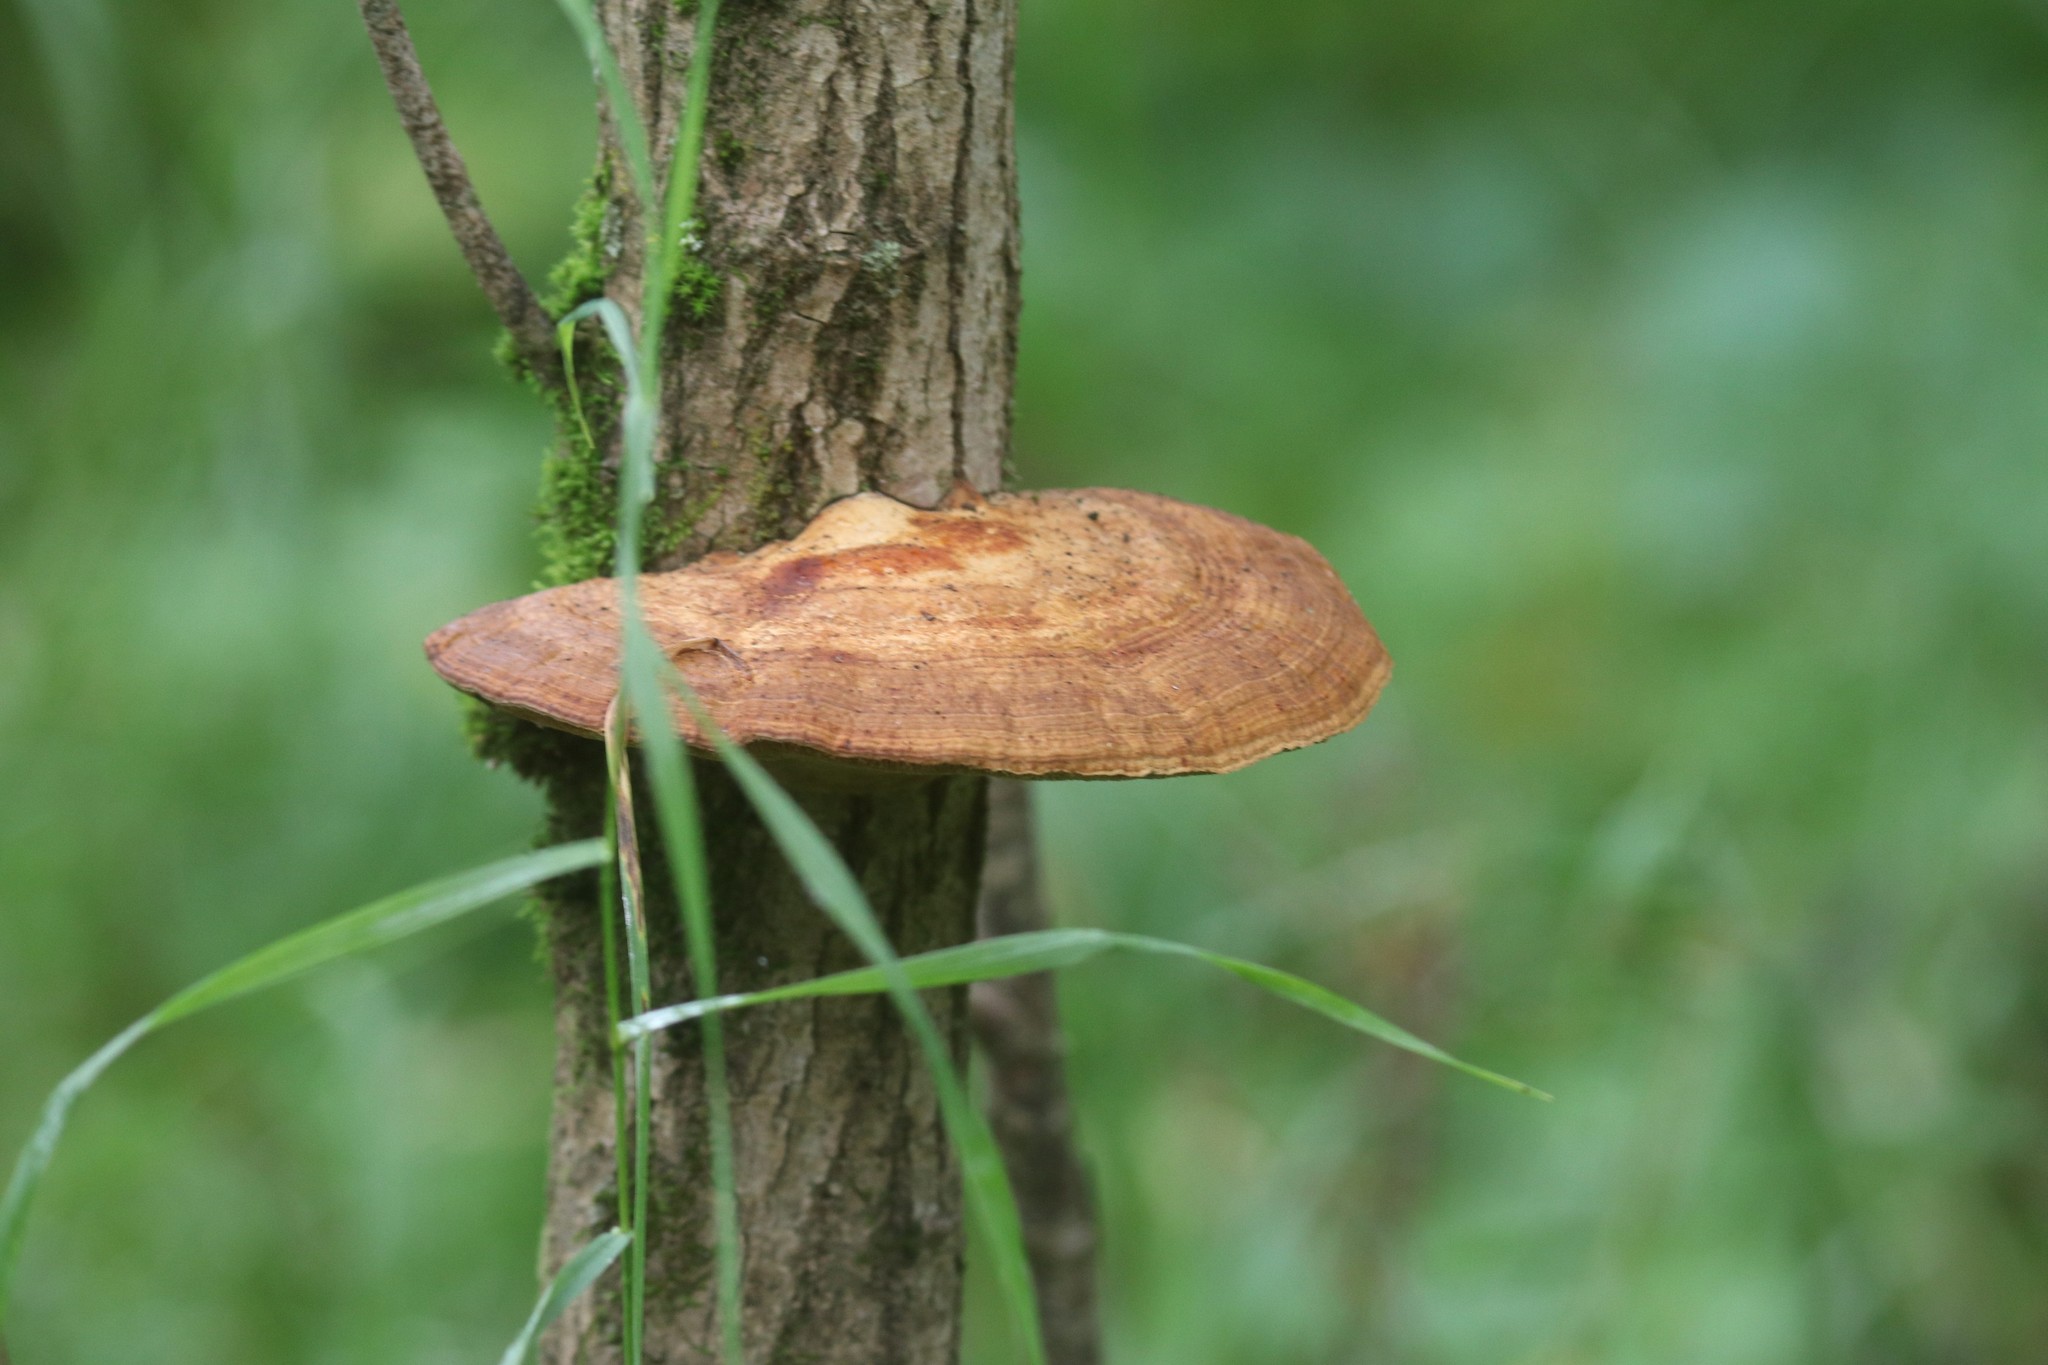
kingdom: Fungi
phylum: Basidiomycota
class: Agaricomycetes
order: Polyporales
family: Polyporaceae
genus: Daedaleopsis
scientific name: Daedaleopsis confragosa
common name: Blushing bracket
